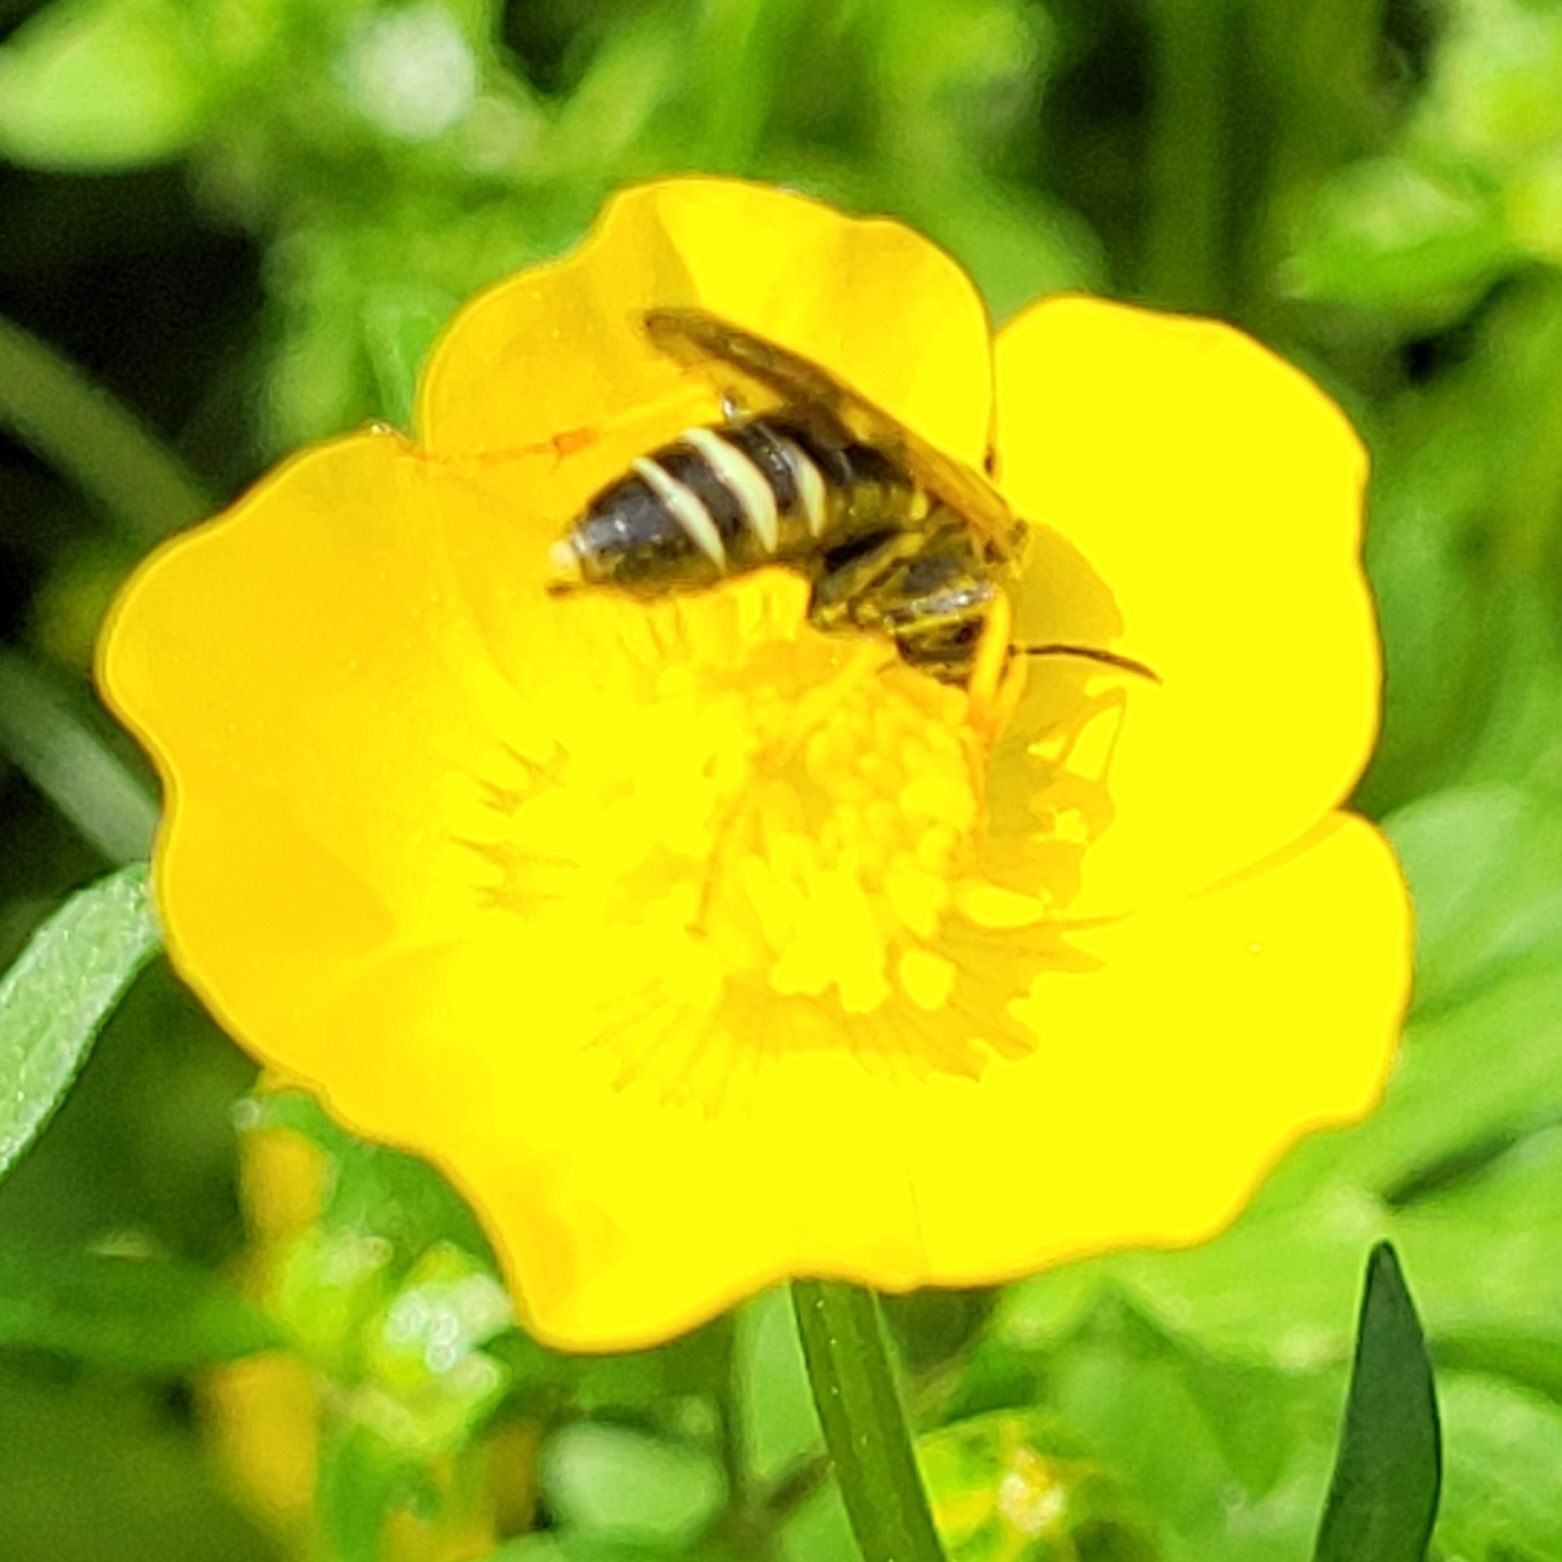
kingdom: Animalia
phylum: Arthropoda
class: Insecta
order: Hymenoptera
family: Tenthredinidae
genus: Tenthredo
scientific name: Tenthredo koehleri
